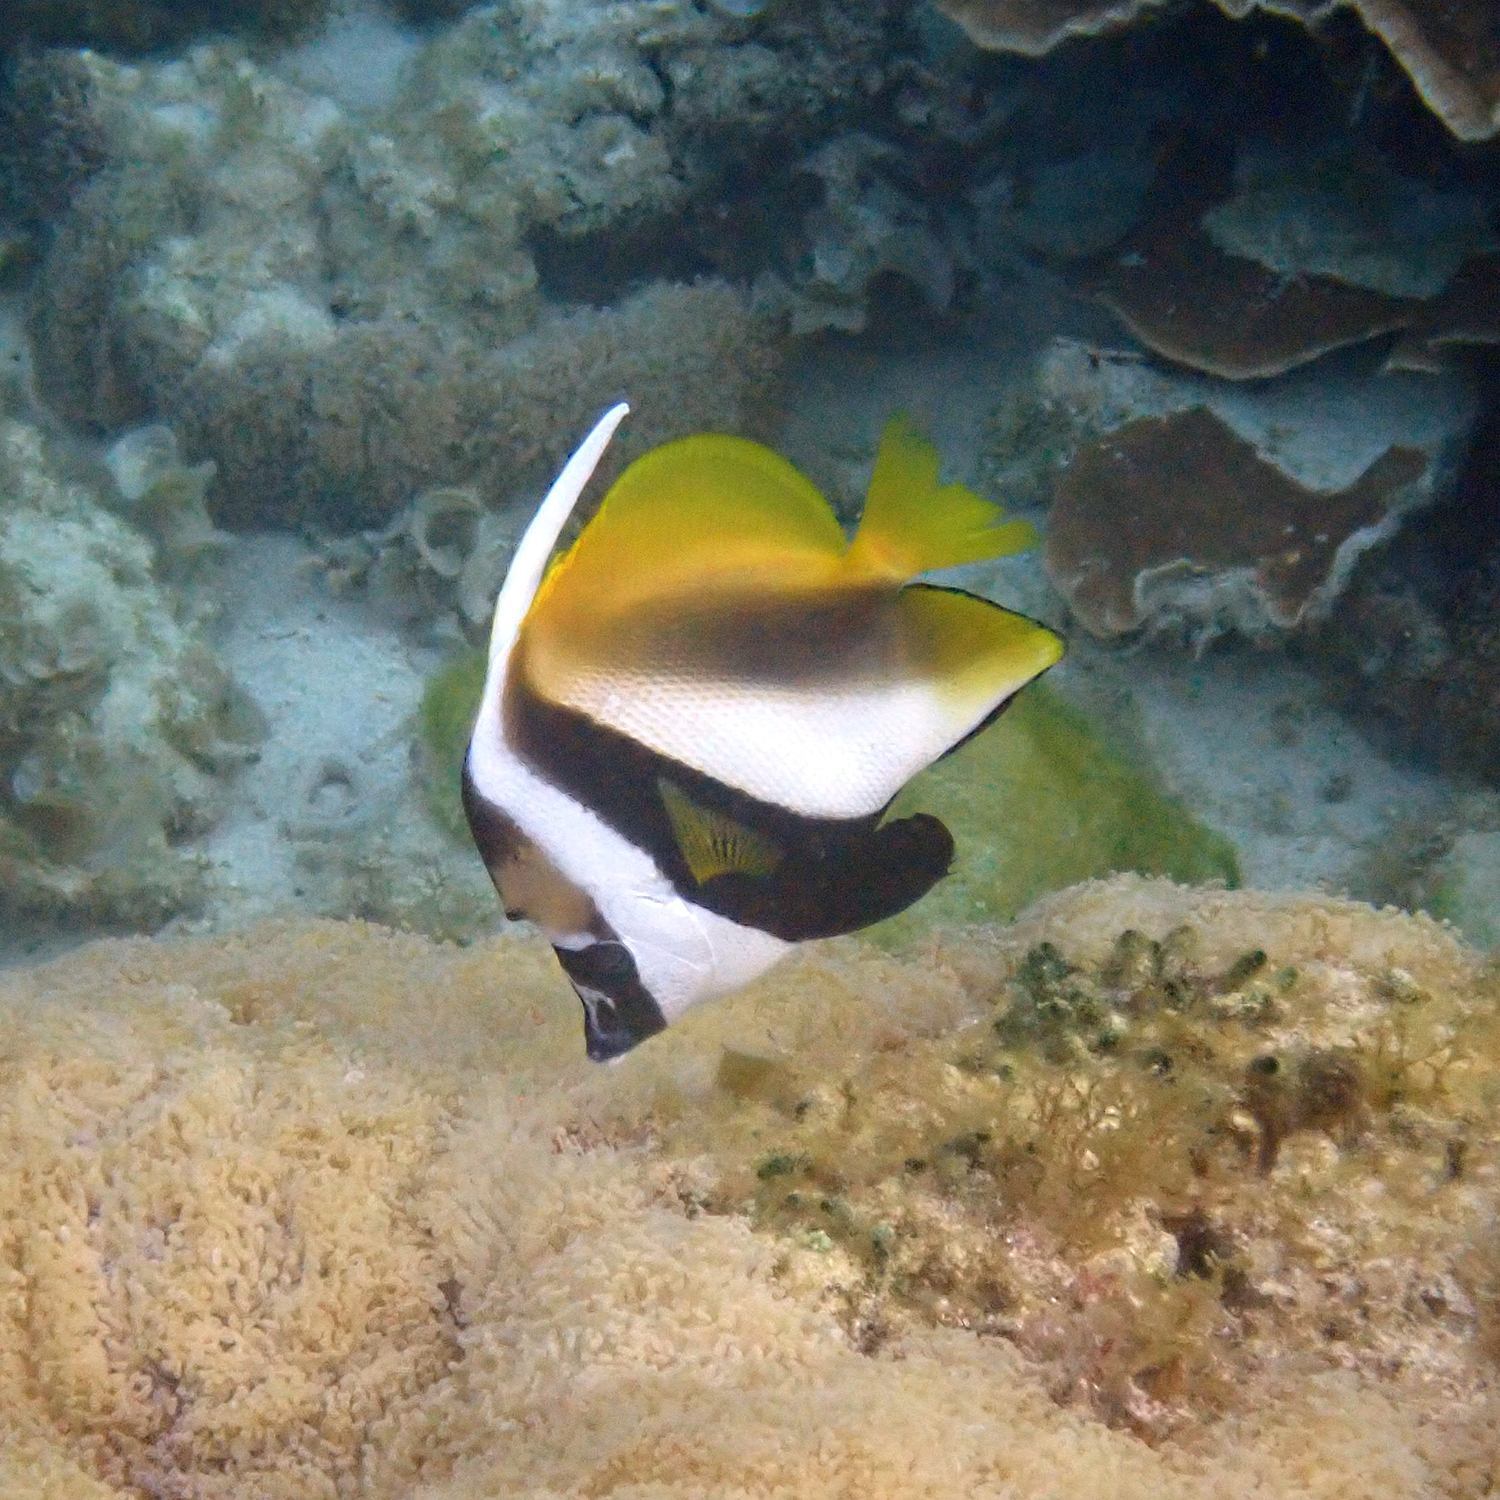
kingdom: Animalia
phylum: Chordata
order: Perciformes
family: Chaetodontidae
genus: Heniochus
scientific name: Heniochus monoceros
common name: Masked bannerfish
